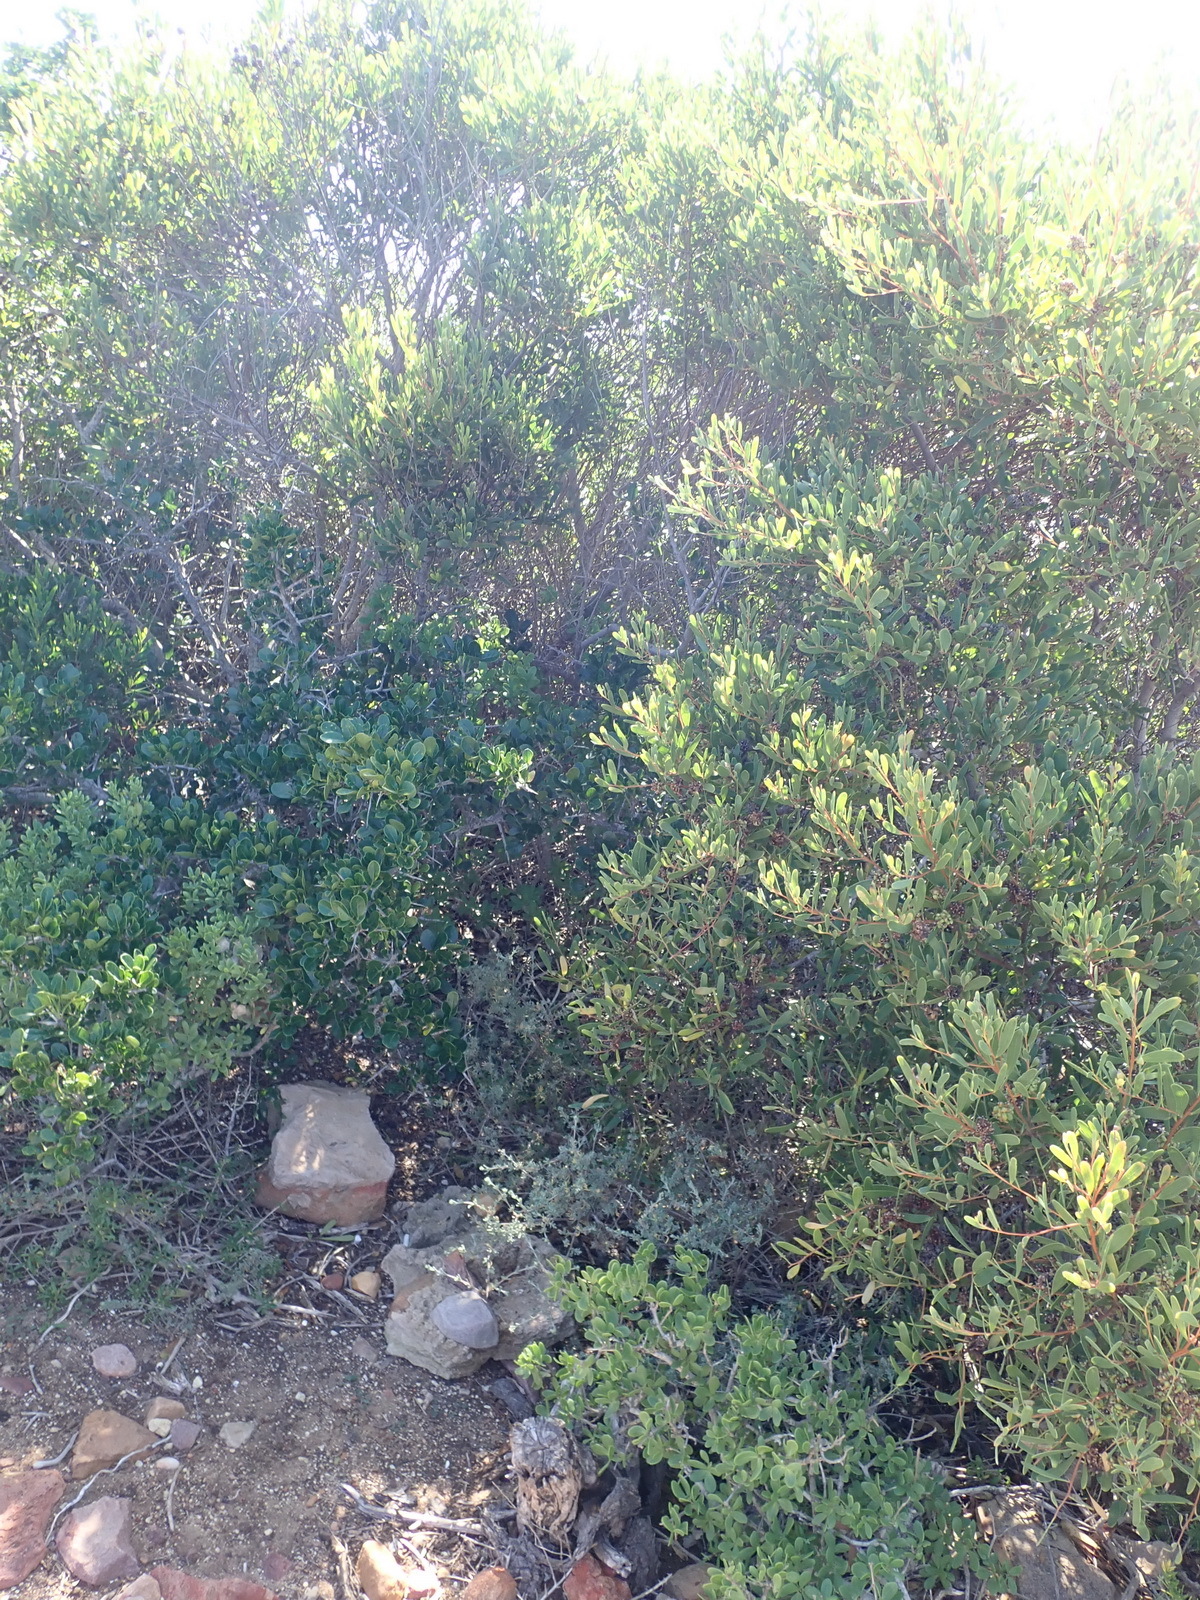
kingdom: Plantae
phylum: Tracheophyta
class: Magnoliopsida
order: Fabales
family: Fabaceae
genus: Acacia
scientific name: Acacia cyclops
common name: Coastal wattle
